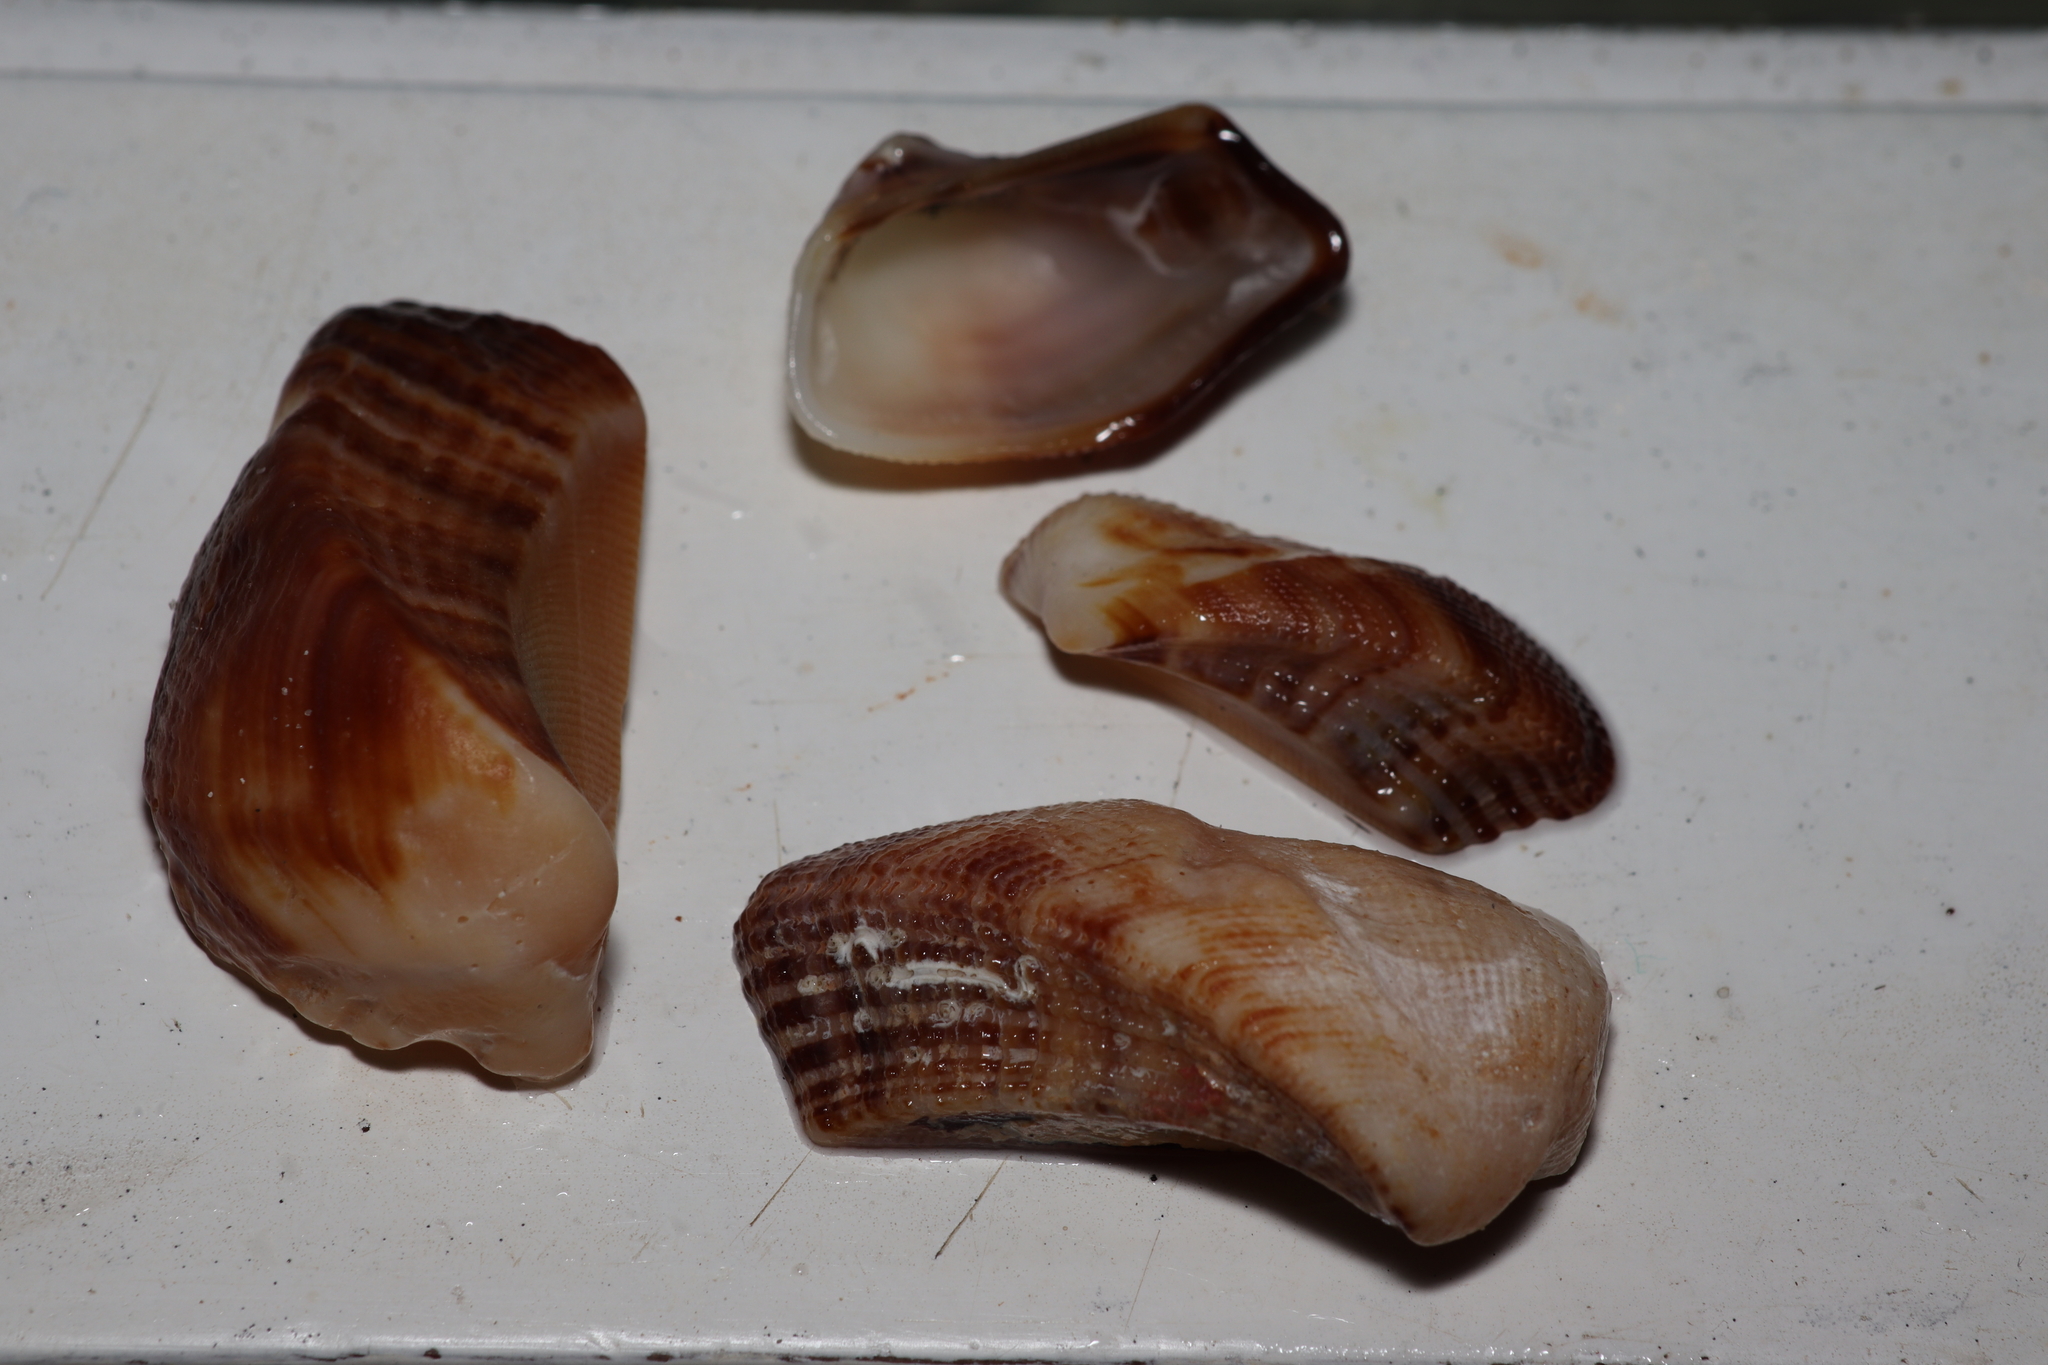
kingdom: Animalia
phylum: Mollusca
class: Bivalvia
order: Arcida
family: Arcidae
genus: Lamarcka
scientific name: Lamarcka imbricata
